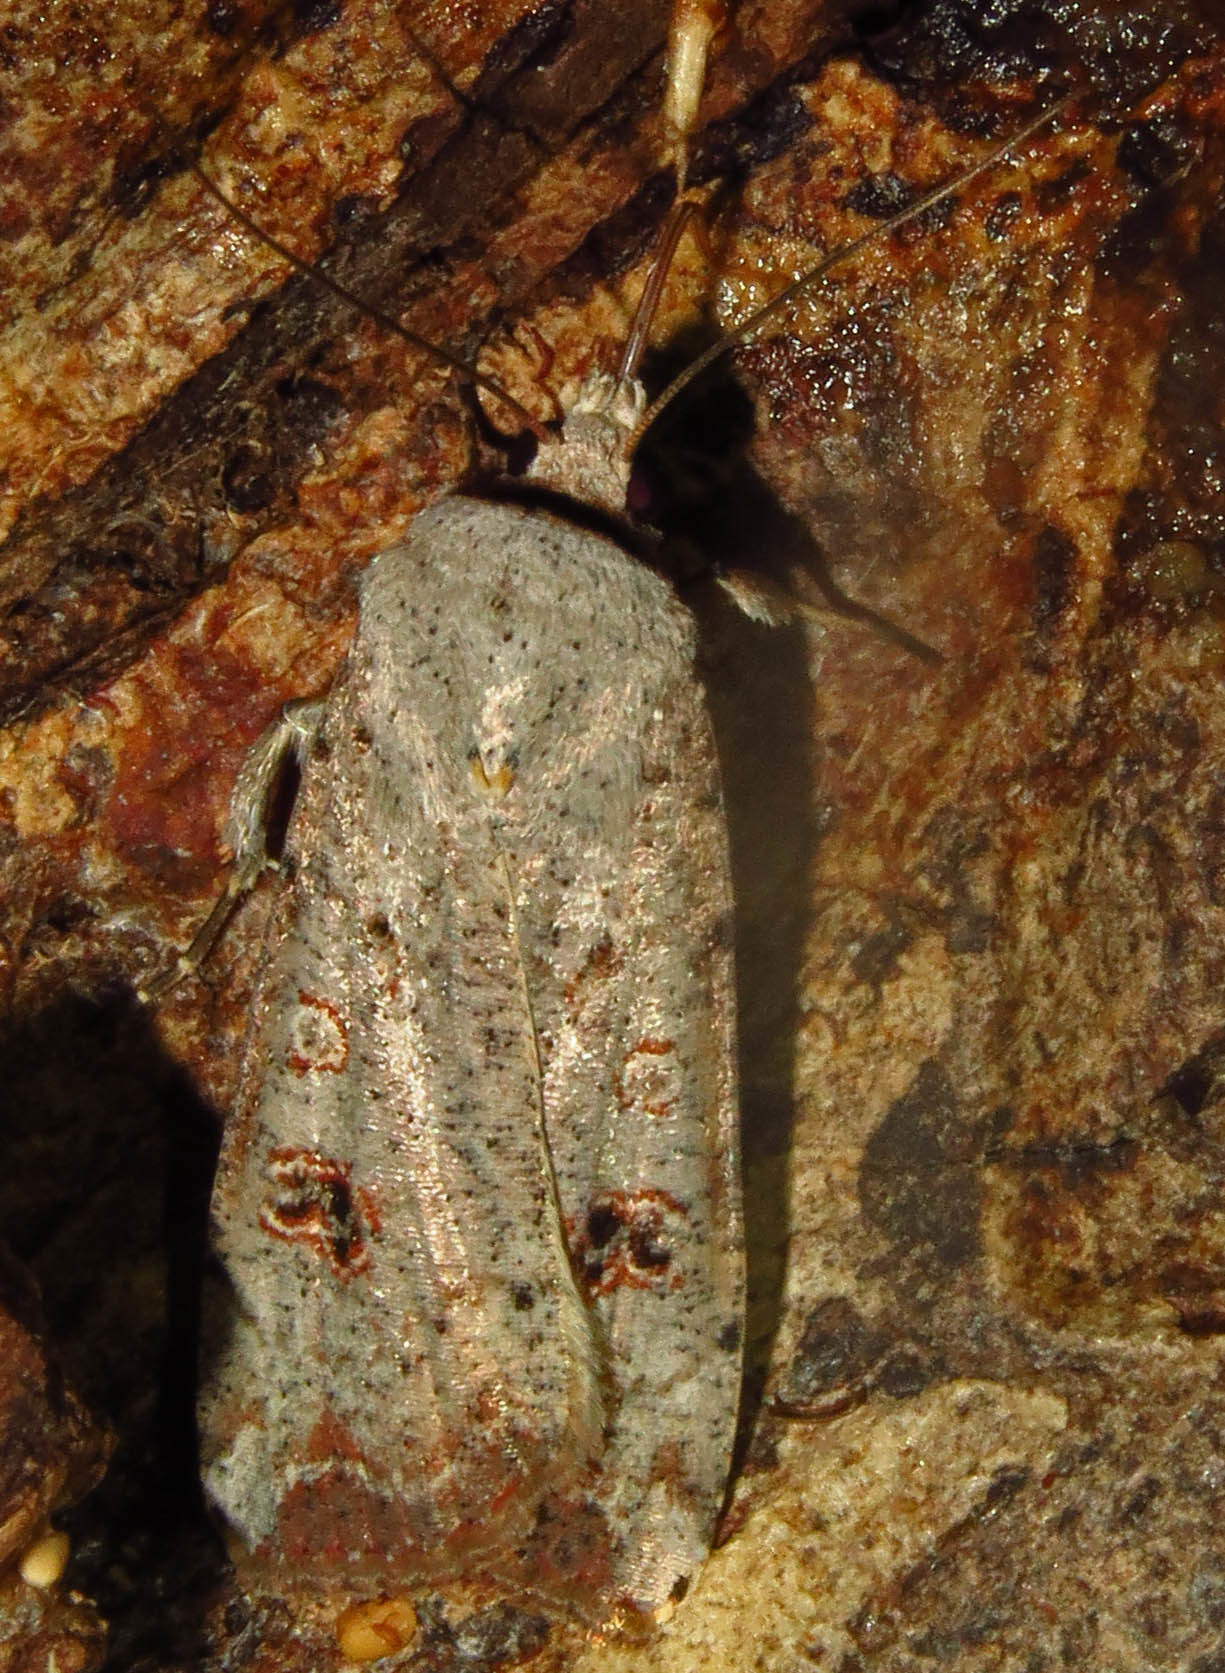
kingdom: Animalia
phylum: Arthropoda
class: Insecta
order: Lepidoptera
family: Noctuidae
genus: Anicla
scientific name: Anicla infecta
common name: Green cutworm
